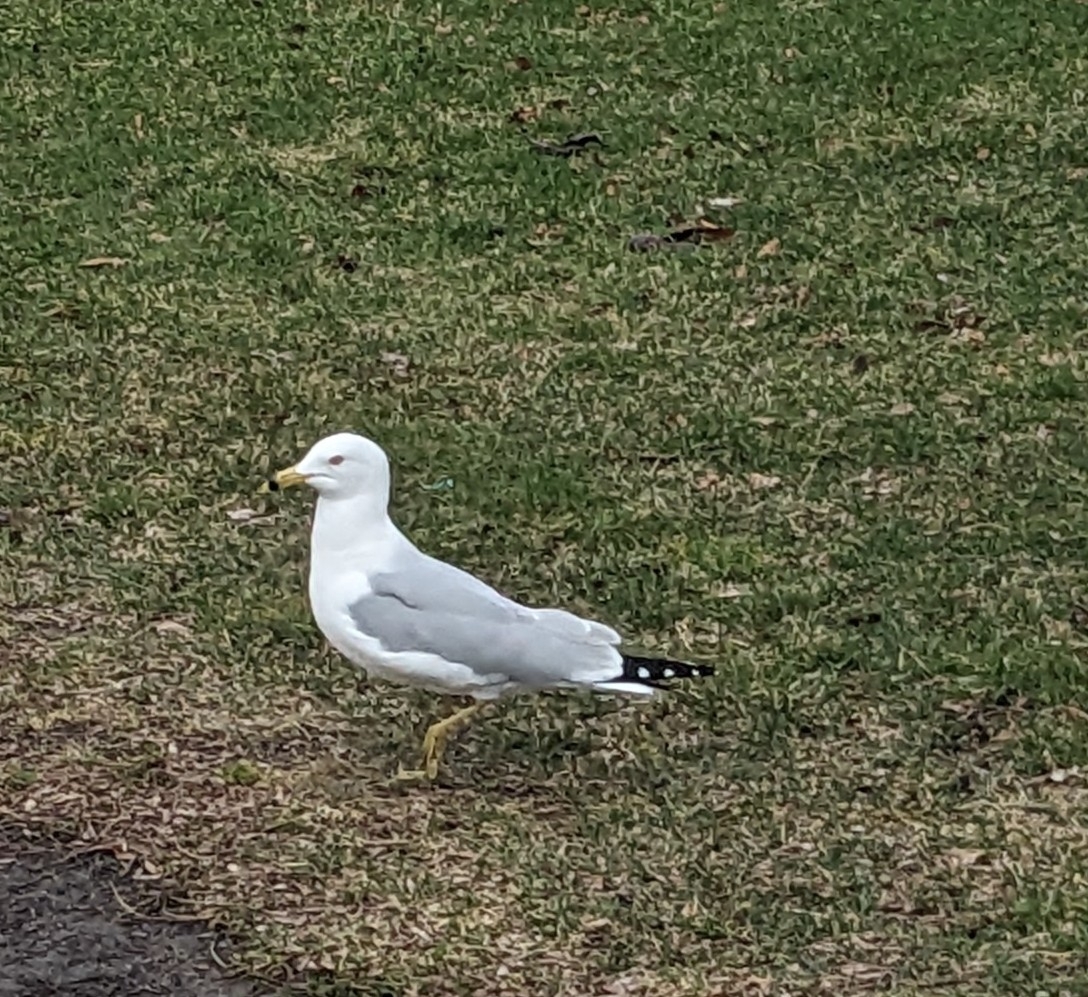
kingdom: Animalia
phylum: Chordata
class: Aves
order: Charadriiformes
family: Laridae
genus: Larus
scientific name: Larus delawarensis
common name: Ring-billed gull
